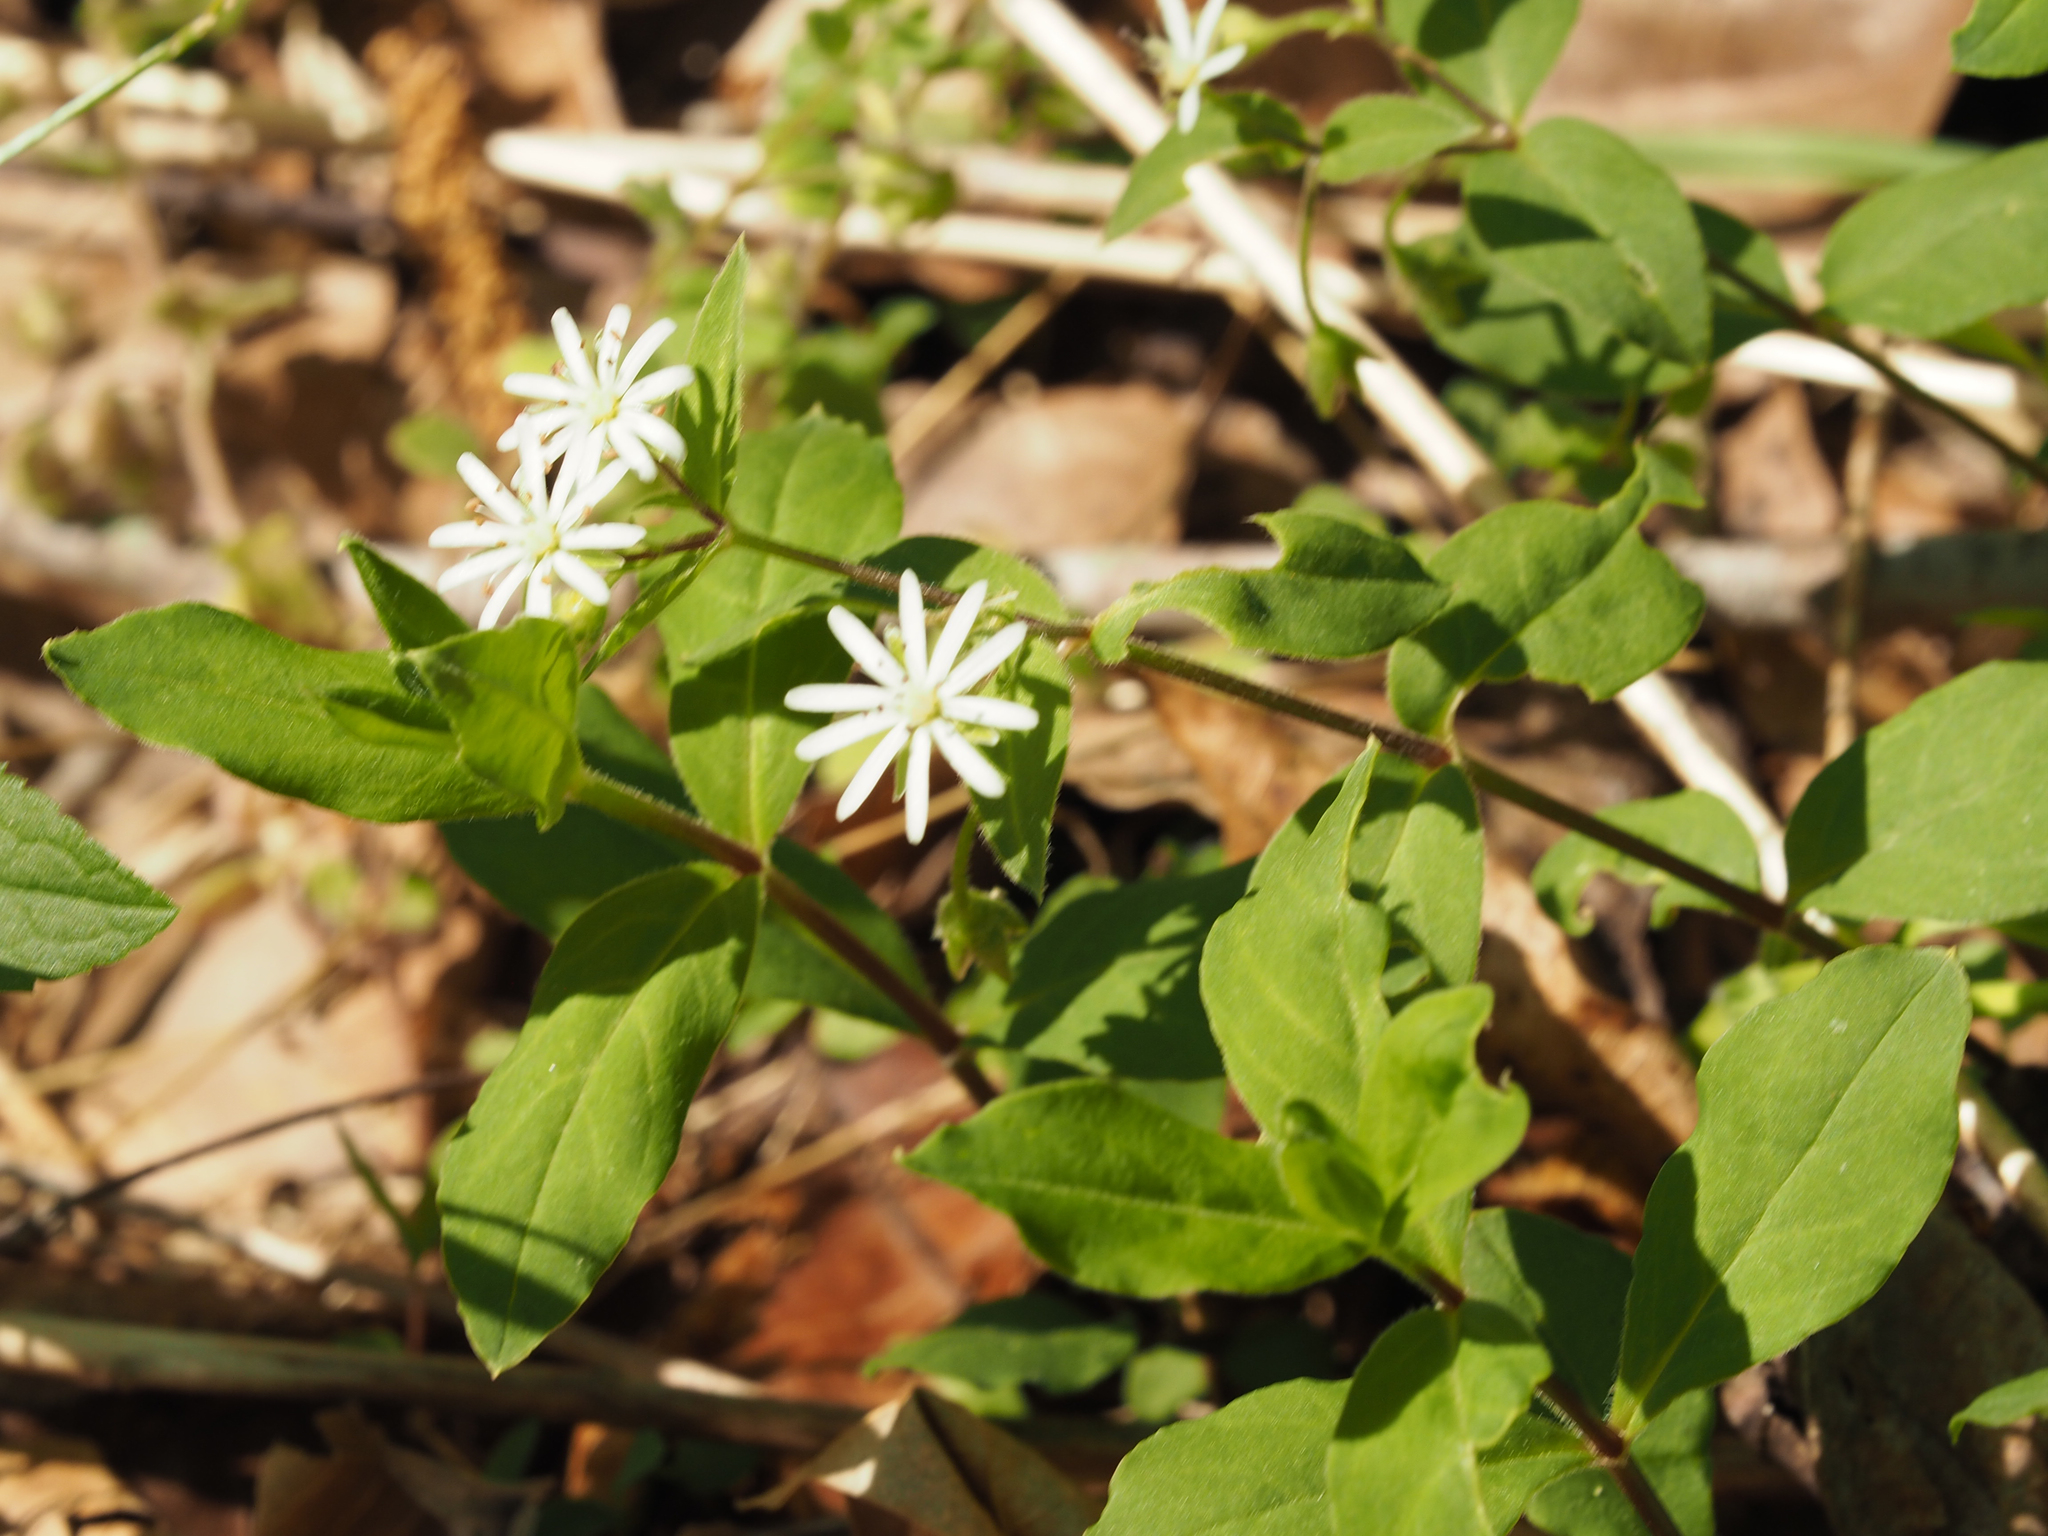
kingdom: Plantae
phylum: Tracheophyta
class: Magnoliopsida
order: Caryophyllales
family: Caryophyllaceae
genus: Stellaria
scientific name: Stellaria pubera
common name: Star chickweed
